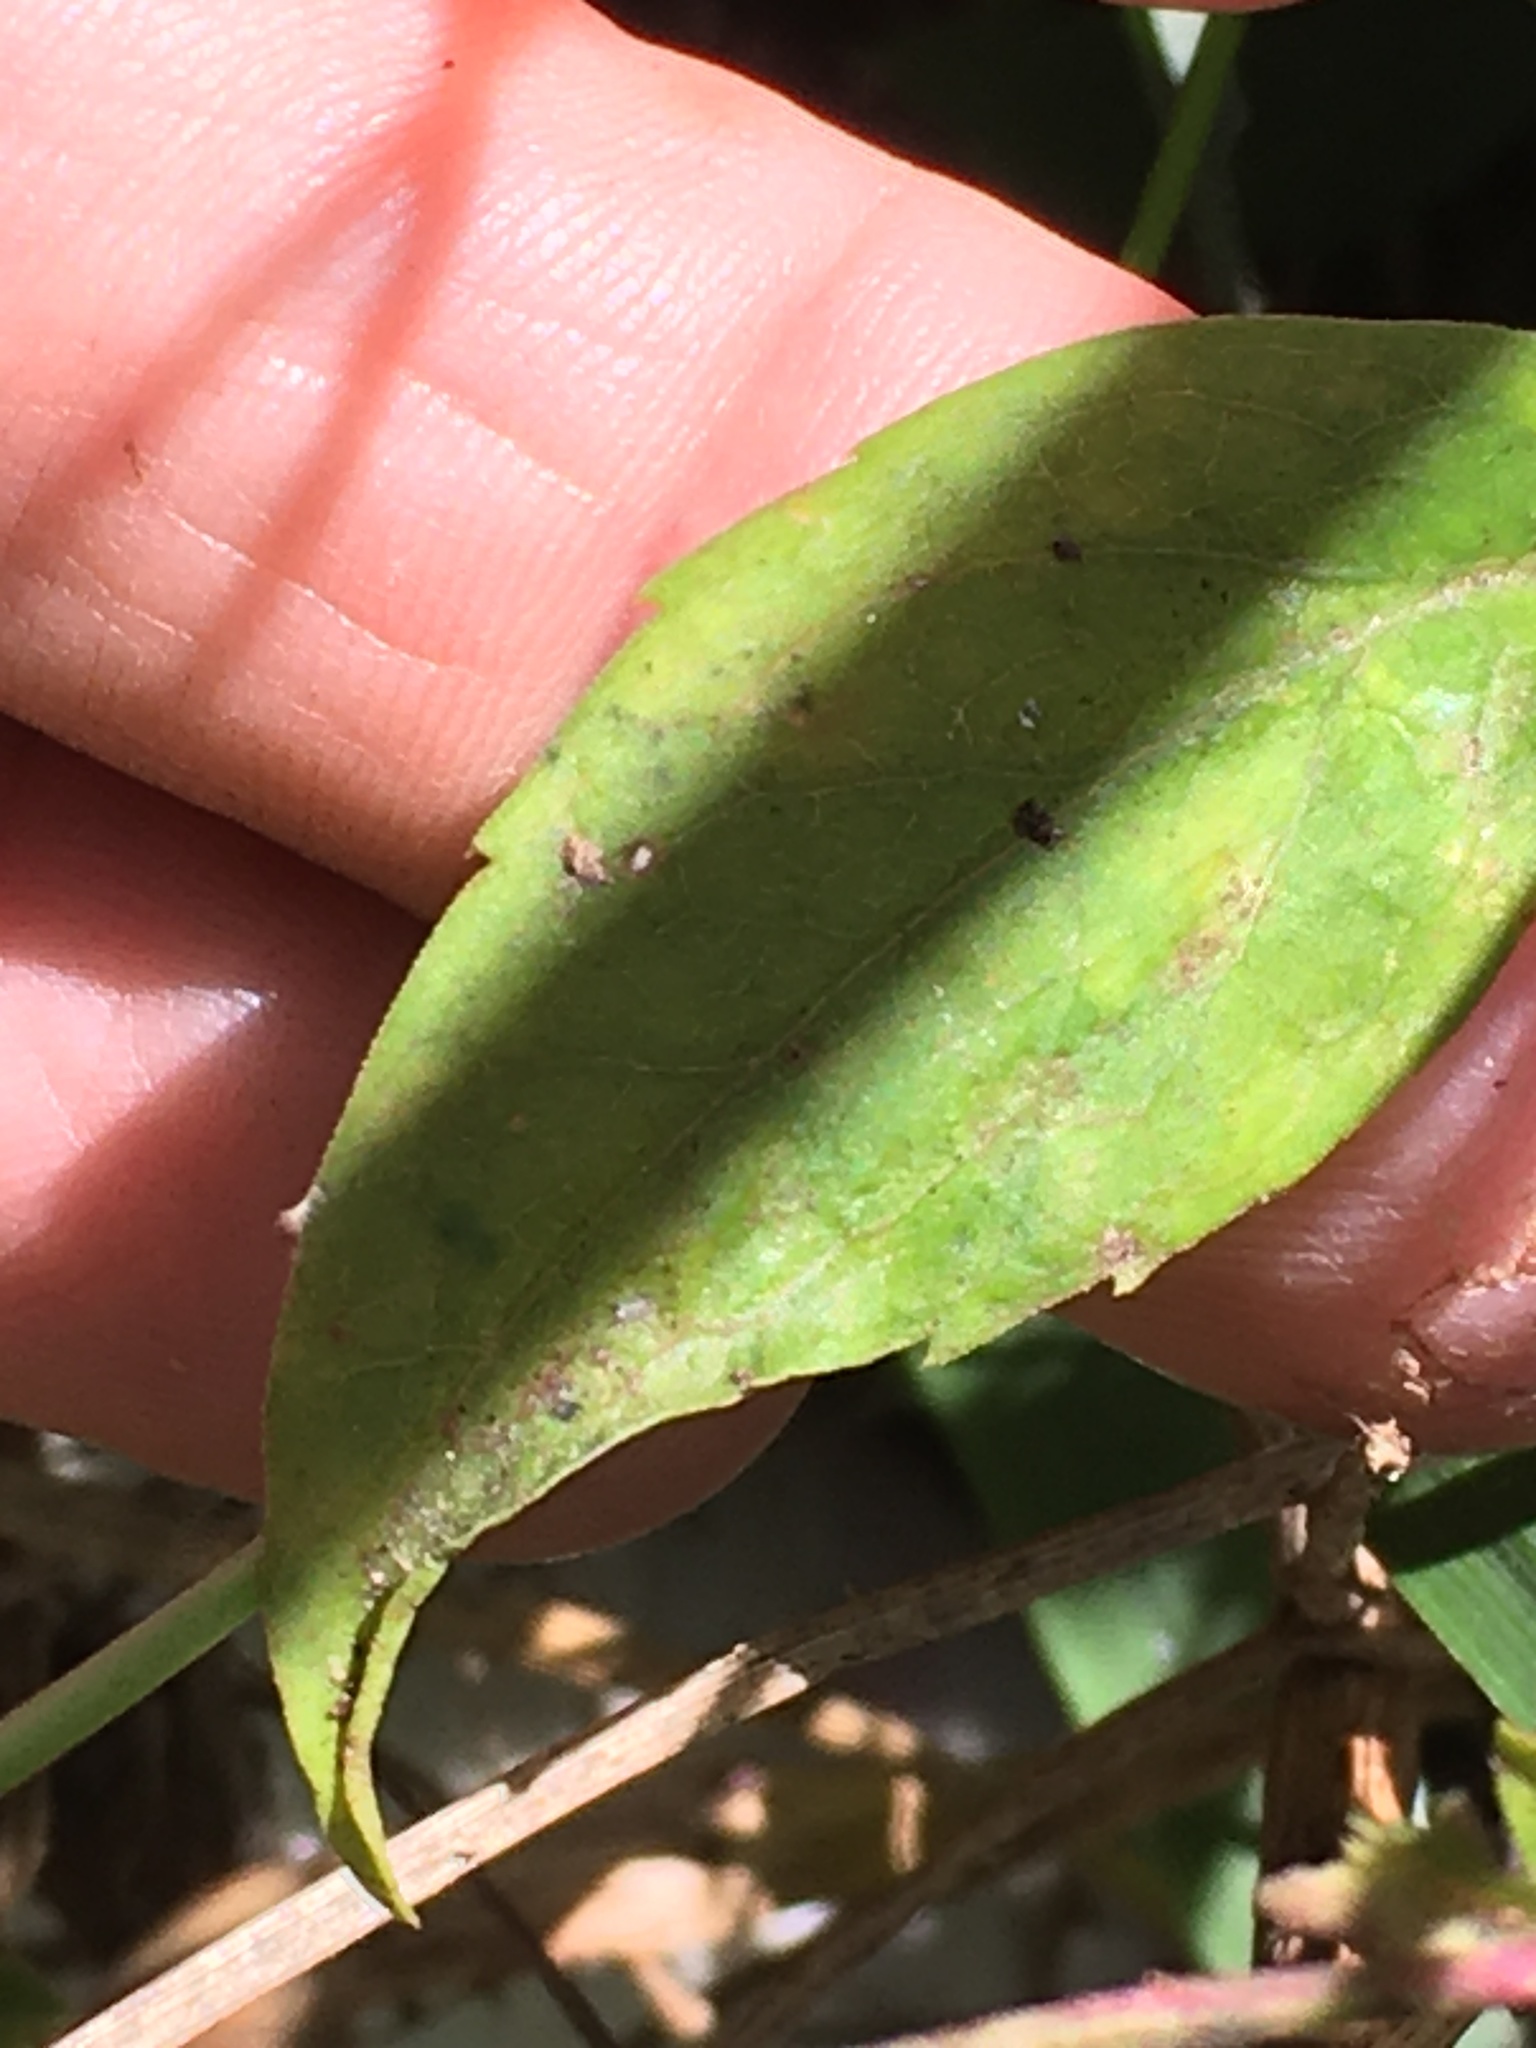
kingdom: Plantae
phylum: Tracheophyta
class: Magnoliopsida
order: Asterales
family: Asteraceae
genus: Symphyotrichum
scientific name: Symphyotrichum lateriflorum
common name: Calico aster
